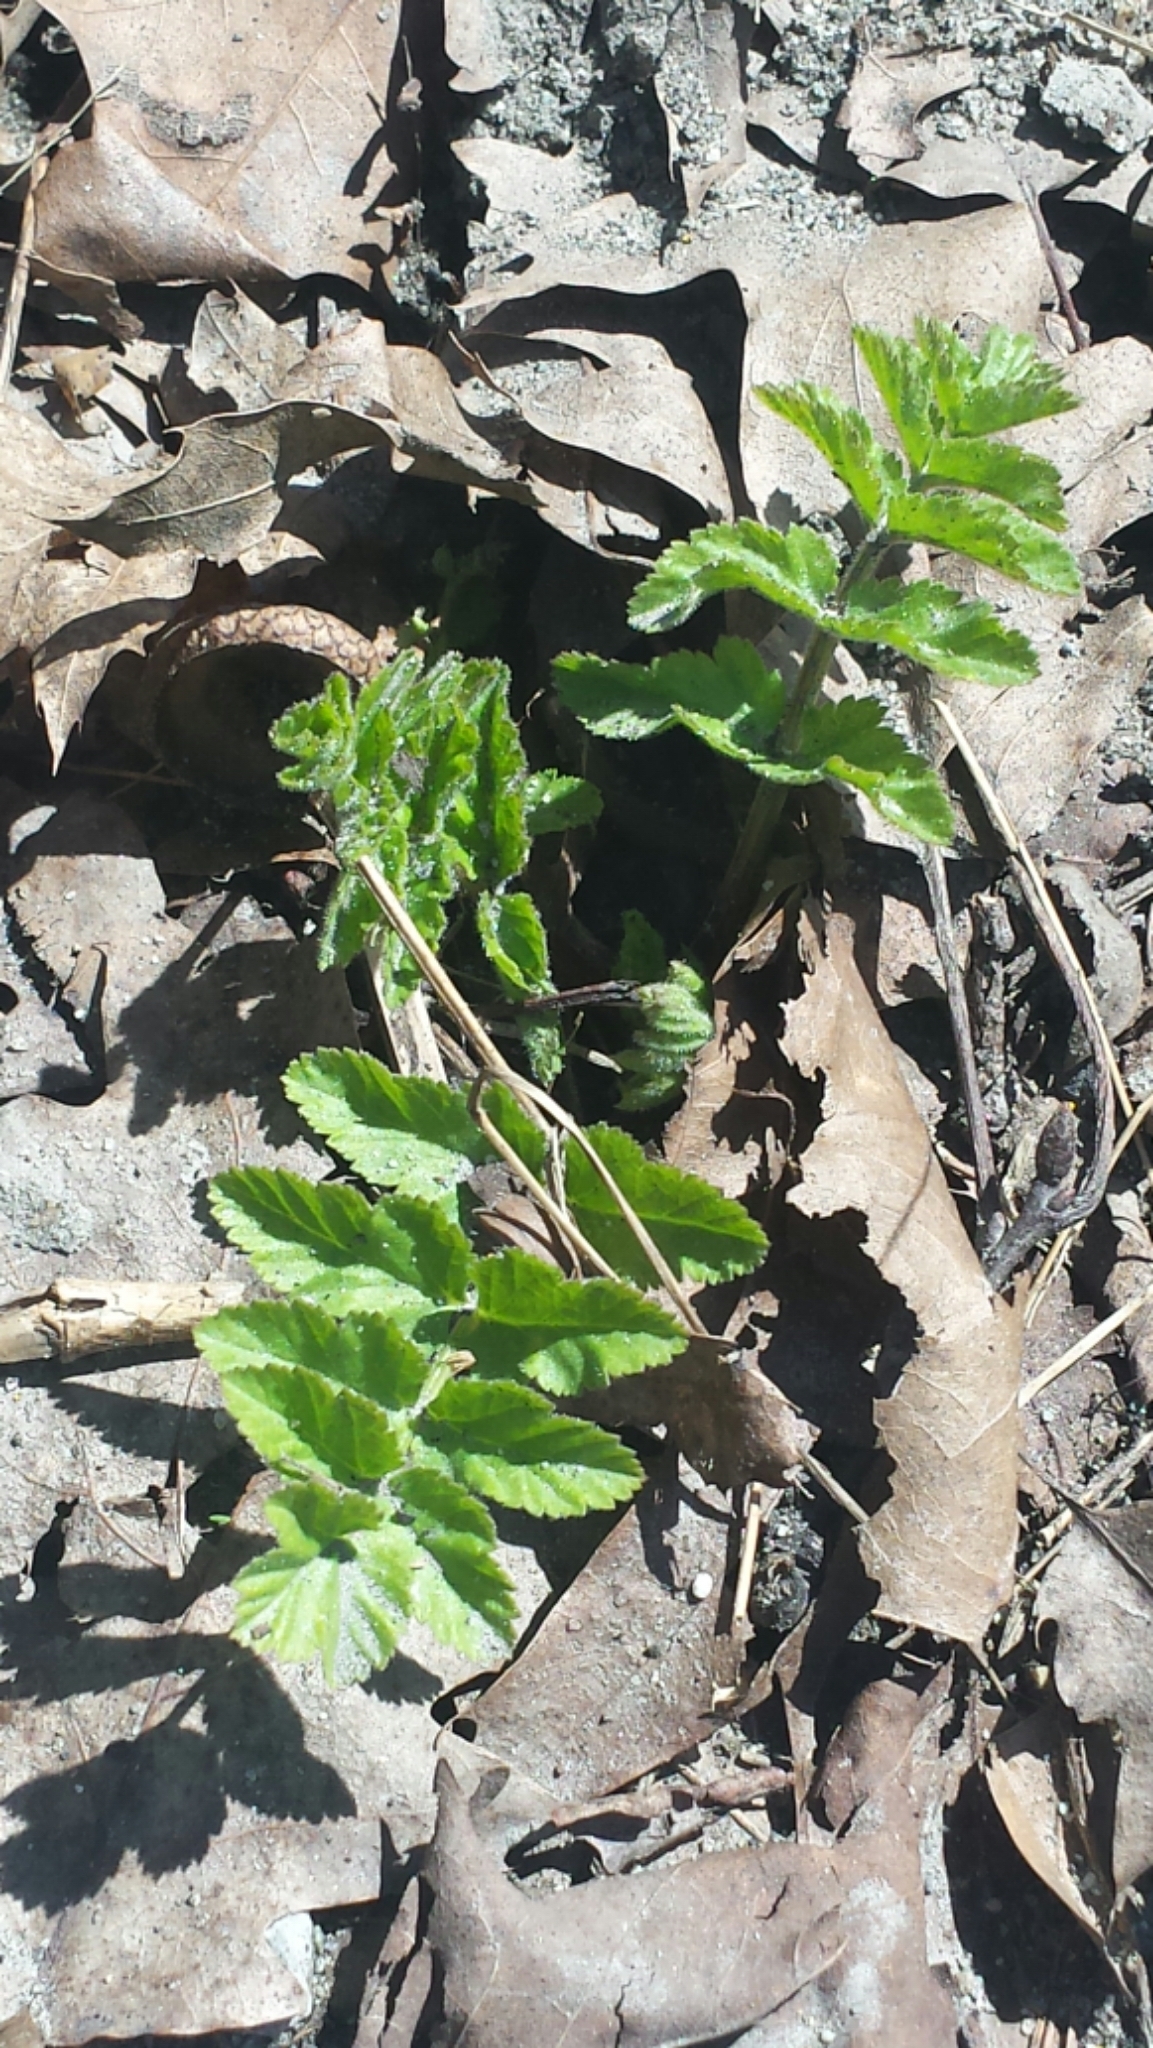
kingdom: Plantae
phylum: Tracheophyta
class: Magnoliopsida
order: Apiales
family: Apiaceae
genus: Pastinaca
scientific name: Pastinaca sativa
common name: Wild parsnip
